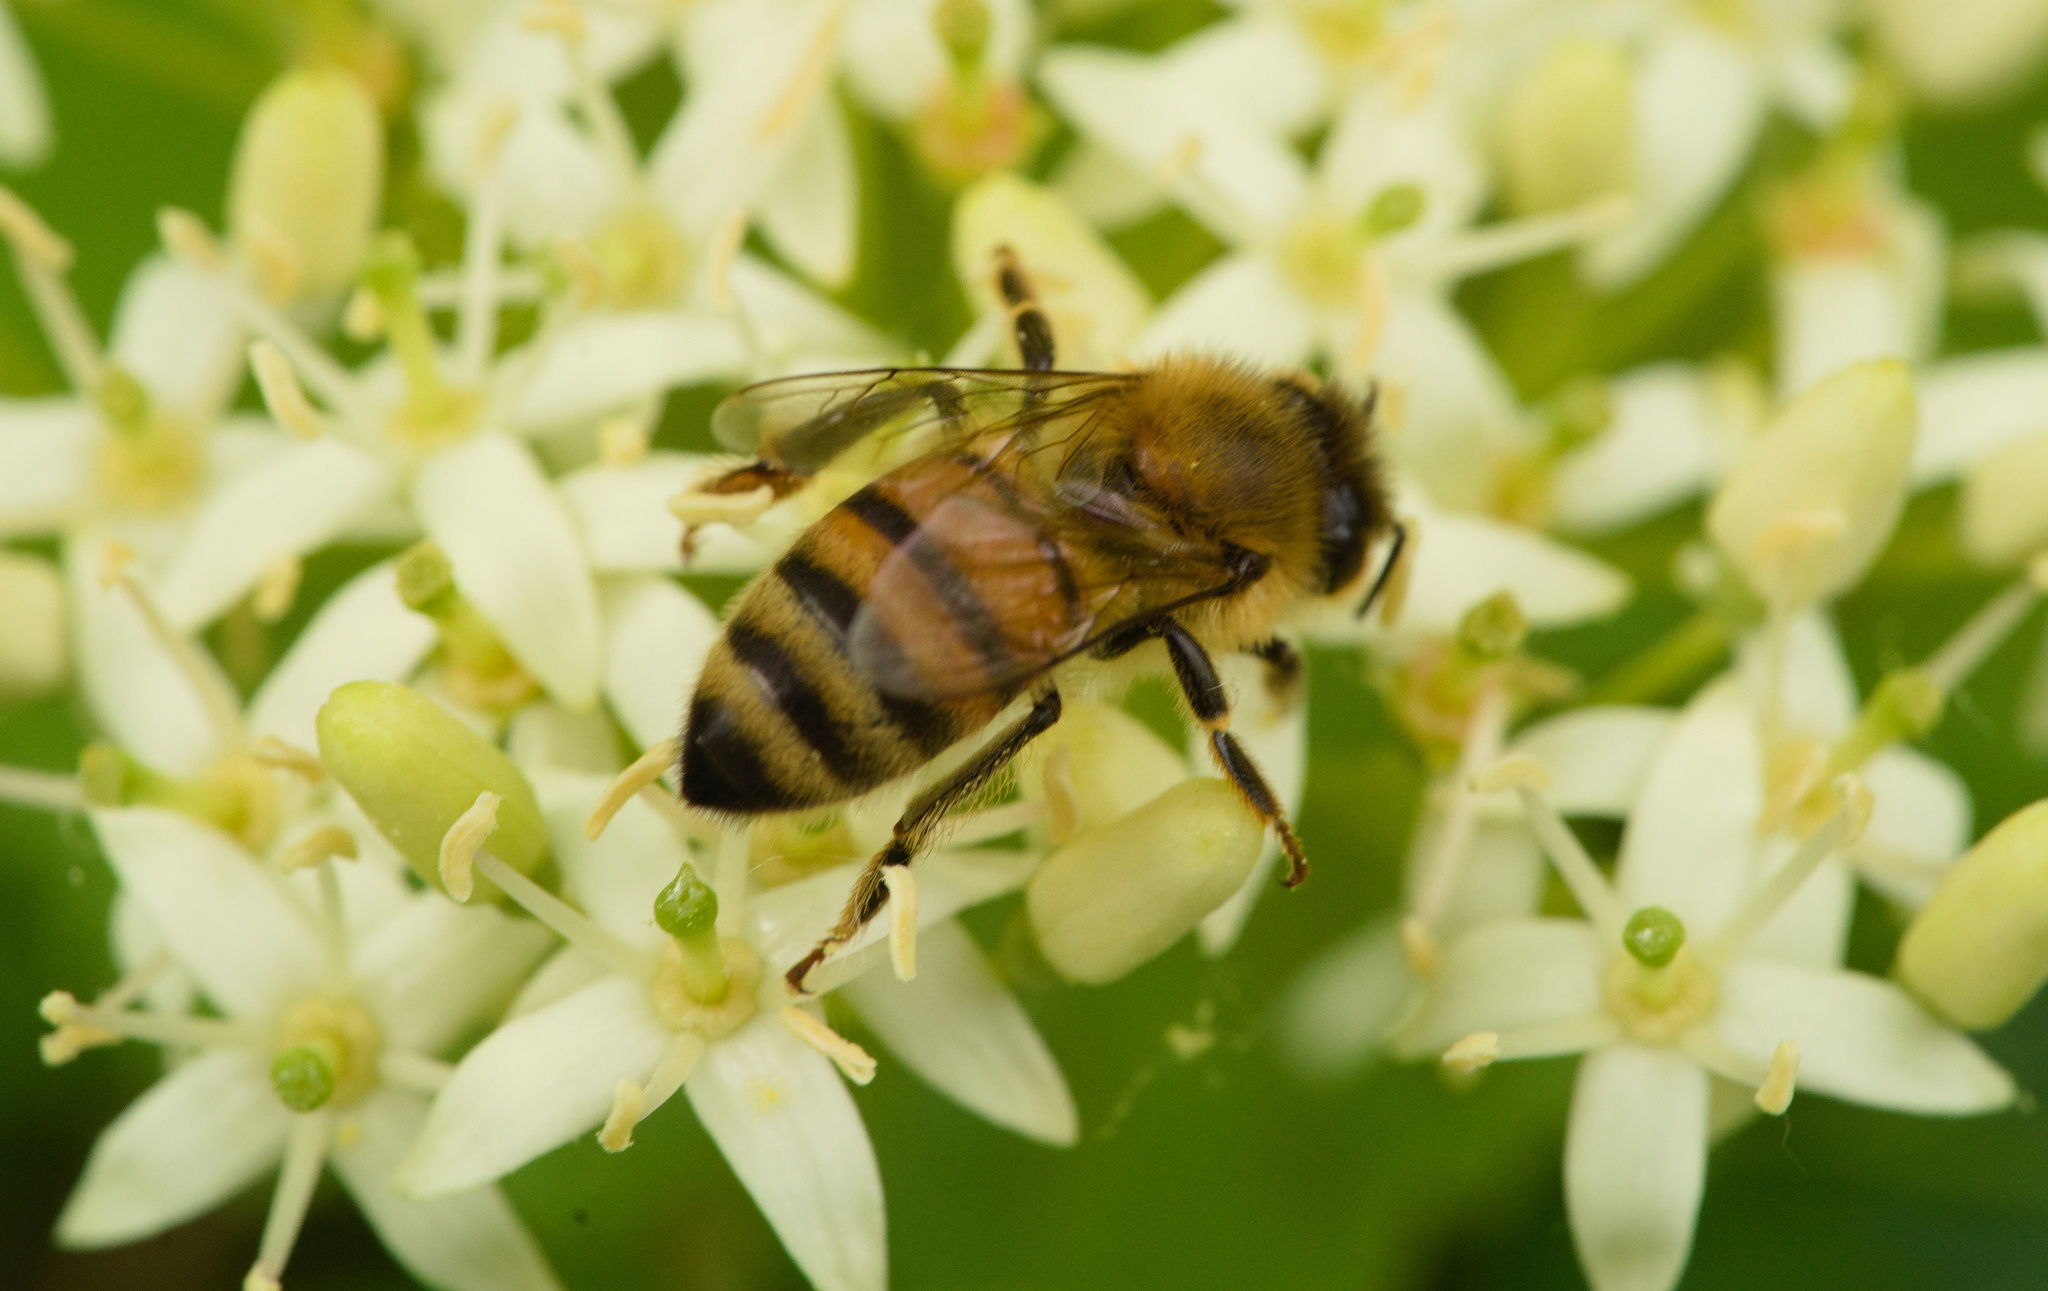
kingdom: Animalia
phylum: Arthropoda
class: Insecta
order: Hymenoptera
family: Apidae
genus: Apis
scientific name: Apis mellifera
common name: Honey bee
